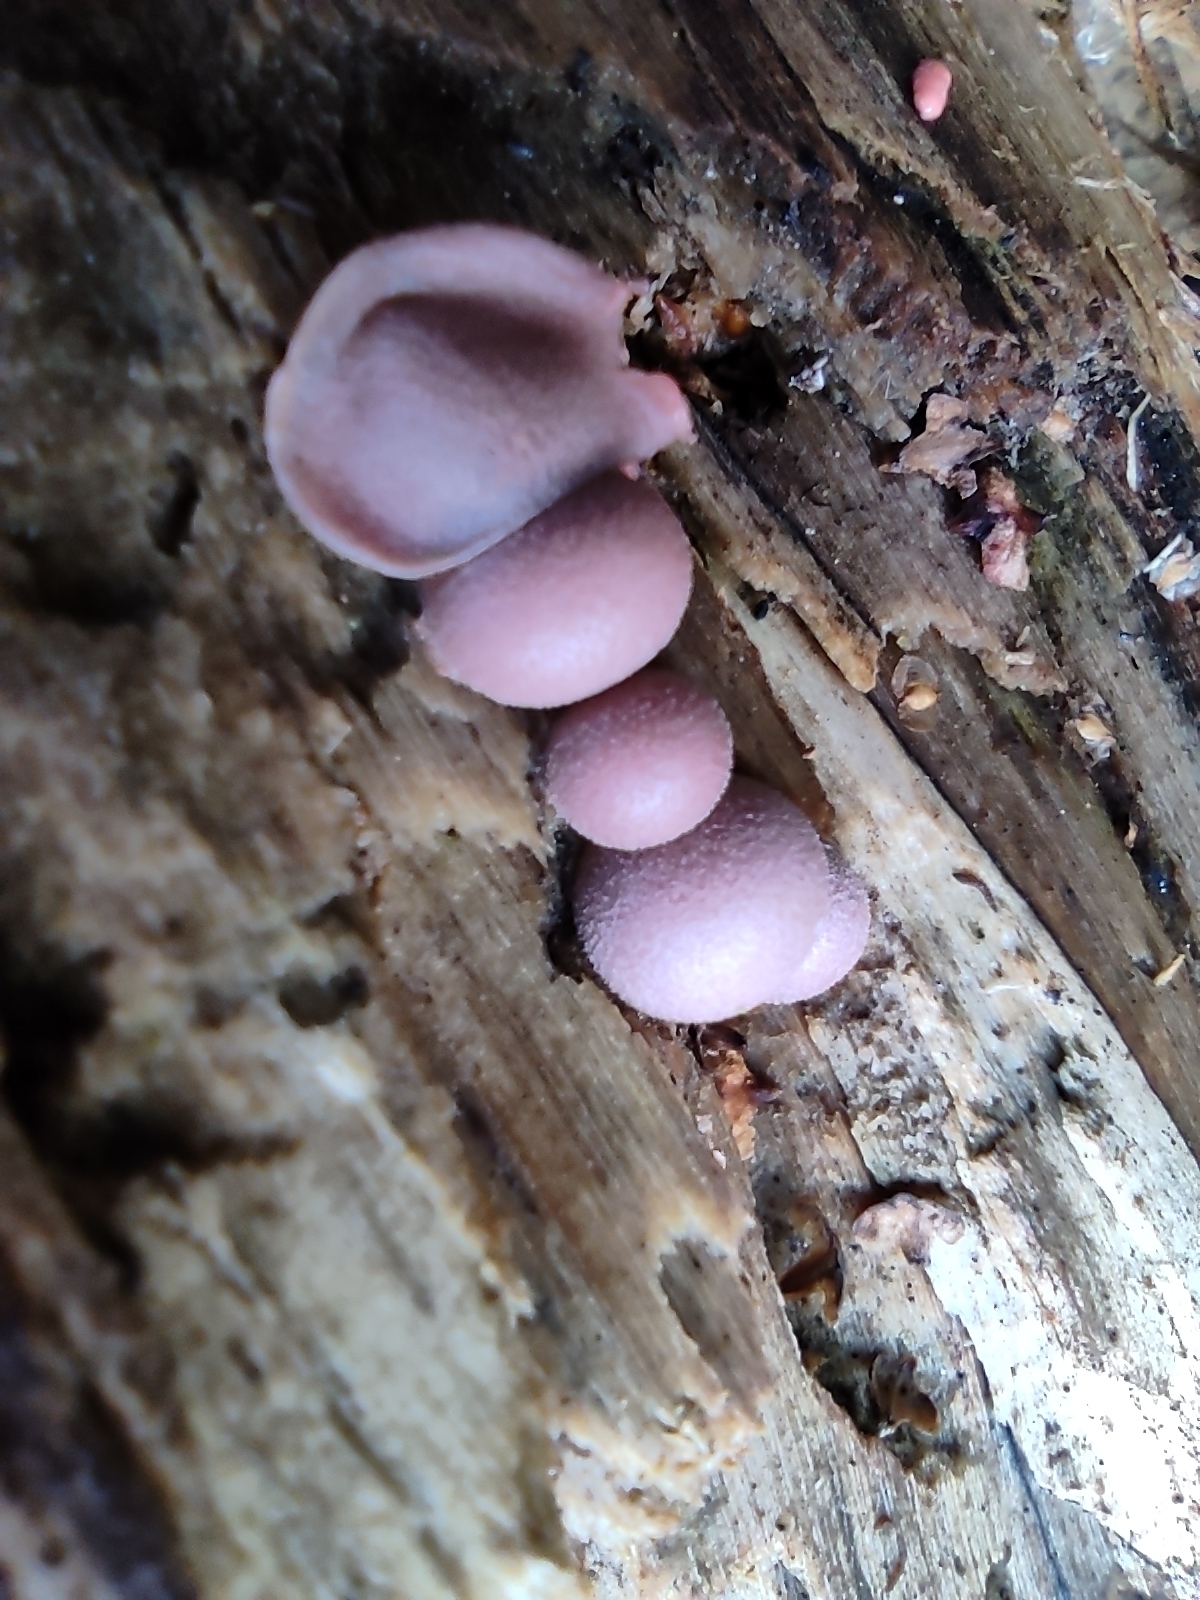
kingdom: Protozoa
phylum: Mycetozoa
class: Myxomycetes
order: Cribrariales
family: Tubiferaceae
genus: Lycogala
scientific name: Lycogala epidendrum
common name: Wolf's milk
